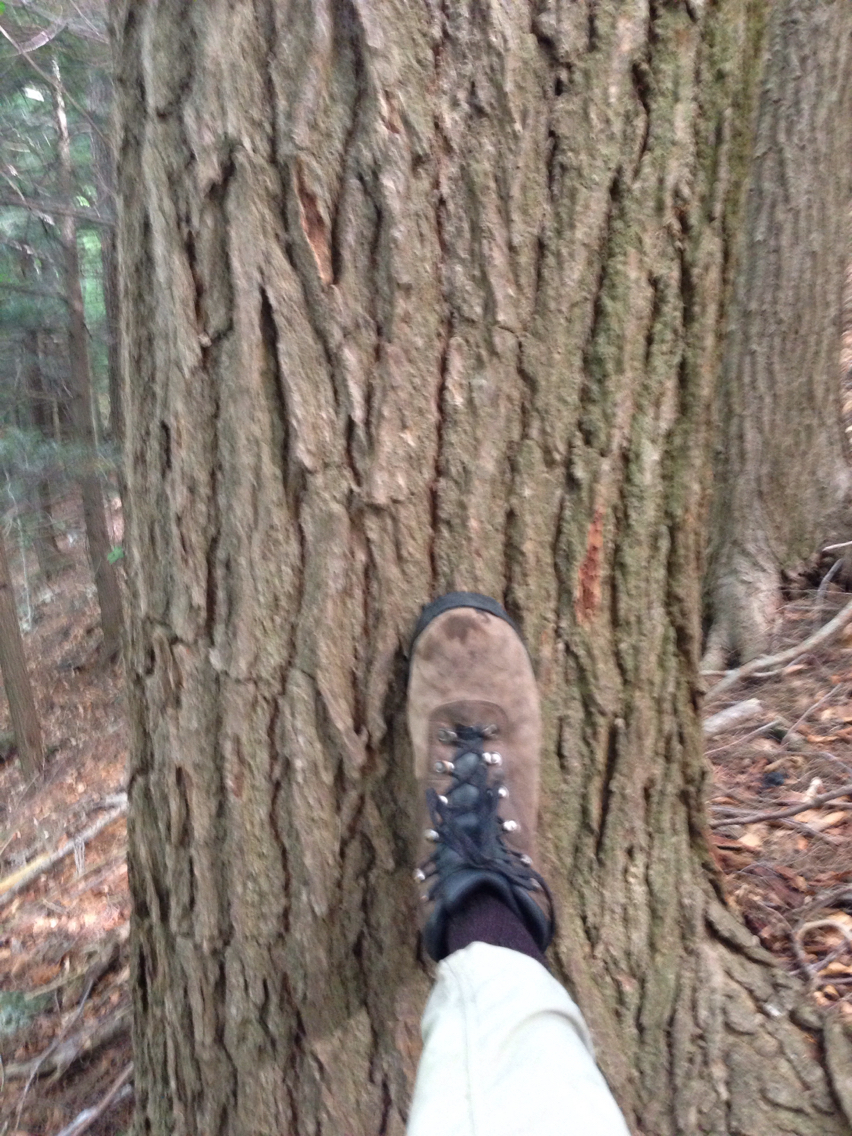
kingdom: Plantae
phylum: Tracheophyta
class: Pinopsida
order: Pinales
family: Pinaceae
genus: Tsuga
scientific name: Tsuga canadensis
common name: Eastern hemlock
